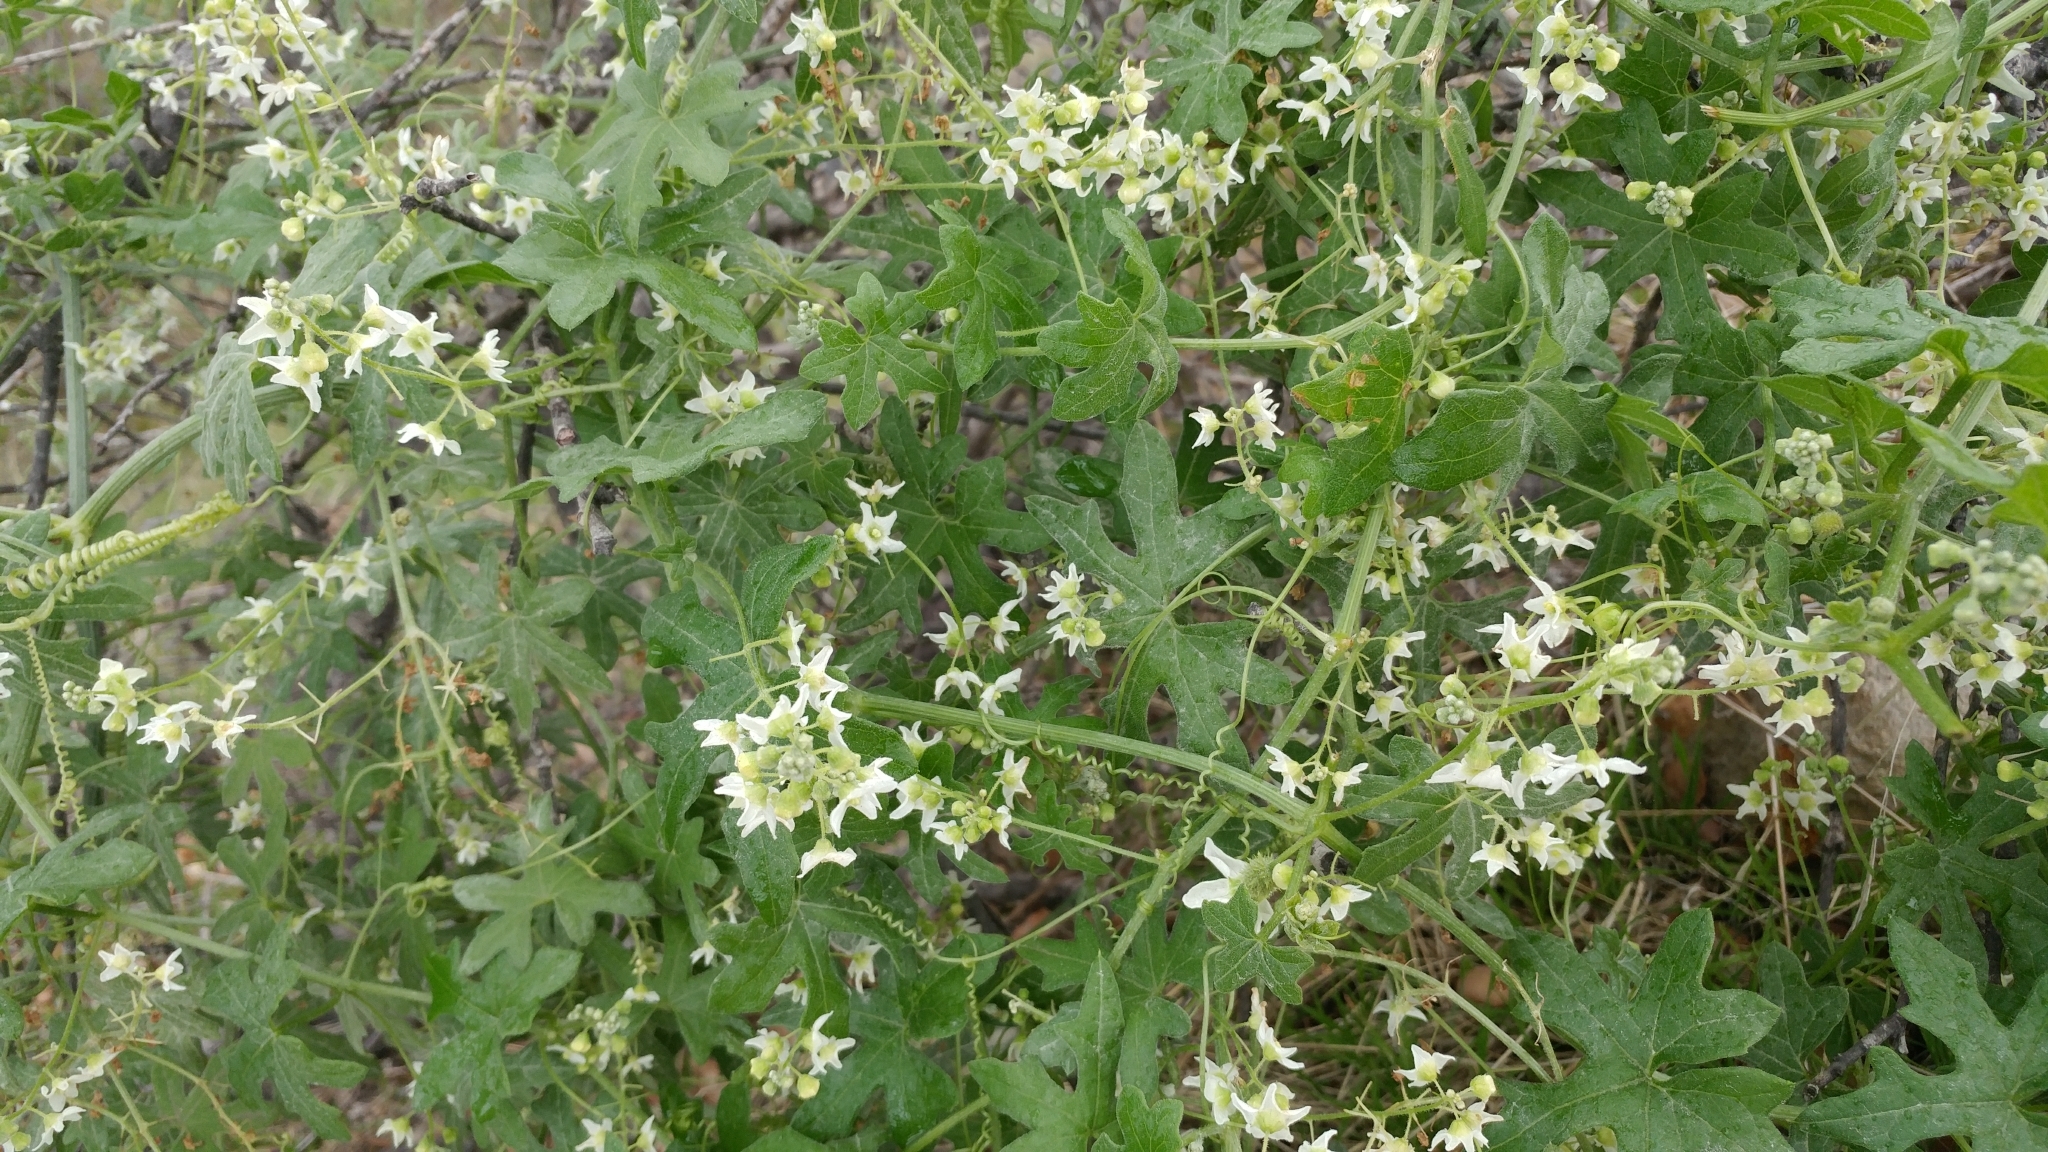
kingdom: Plantae
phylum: Tracheophyta
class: Magnoliopsida
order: Cucurbitales
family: Cucurbitaceae
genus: Marah
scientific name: Marah macrocarpa
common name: Cucamonga manroot
